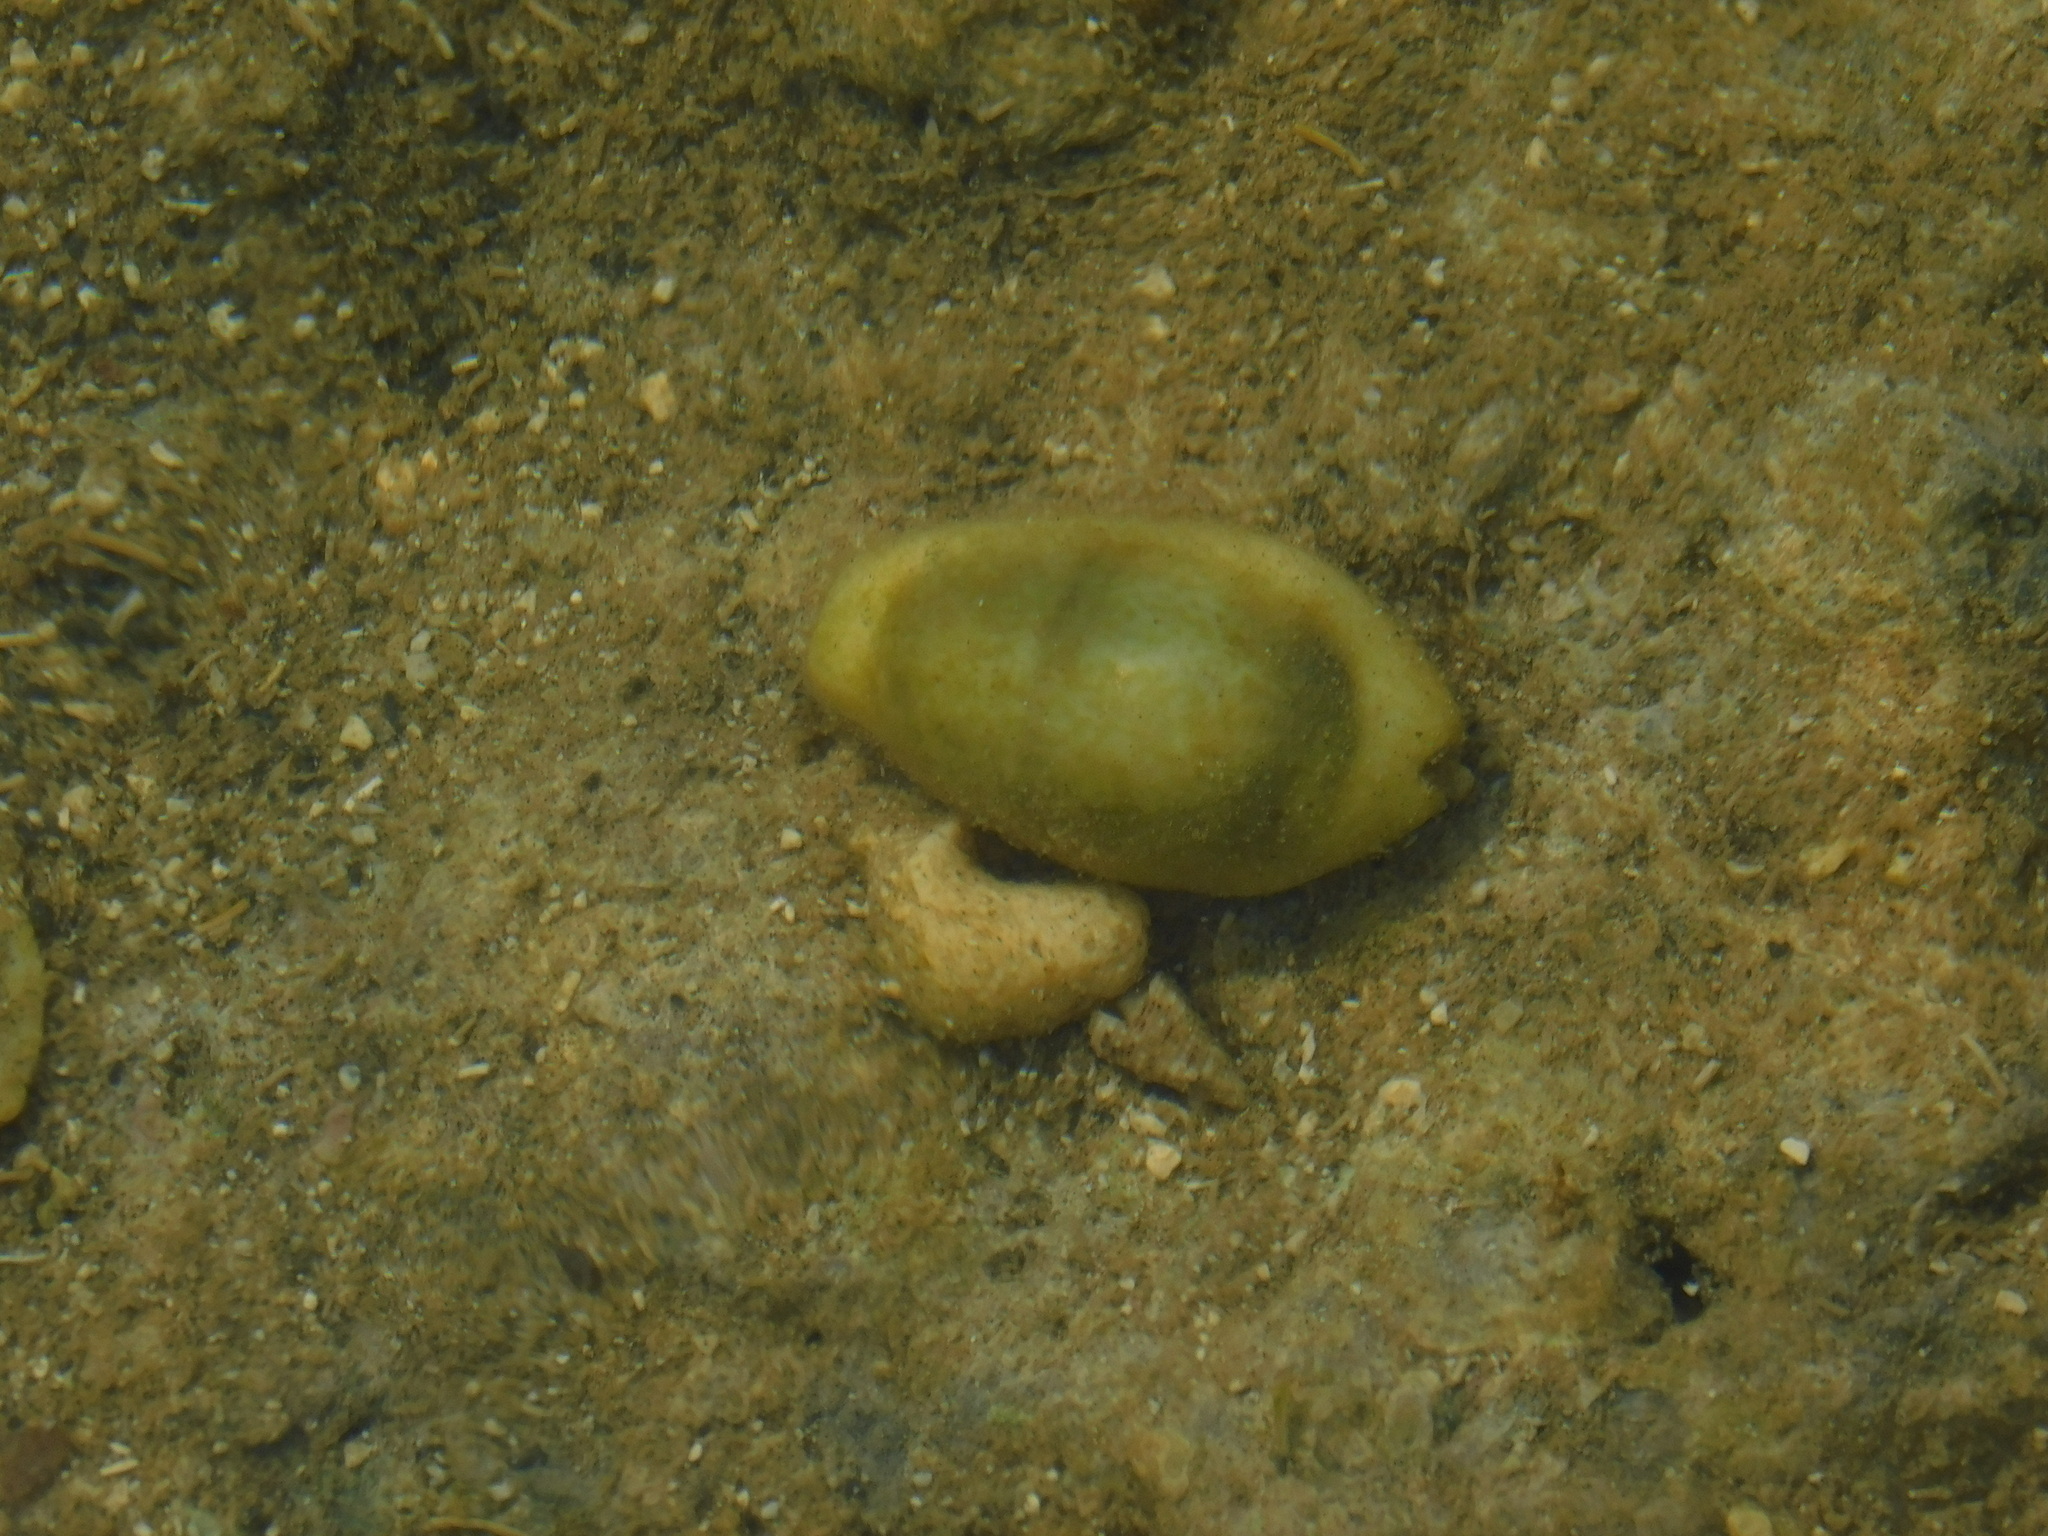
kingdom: Animalia
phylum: Mollusca
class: Gastropoda
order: Littorinimorpha
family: Cypraeidae
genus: Monetaria
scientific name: Monetaria moneta
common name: Money cowrie
